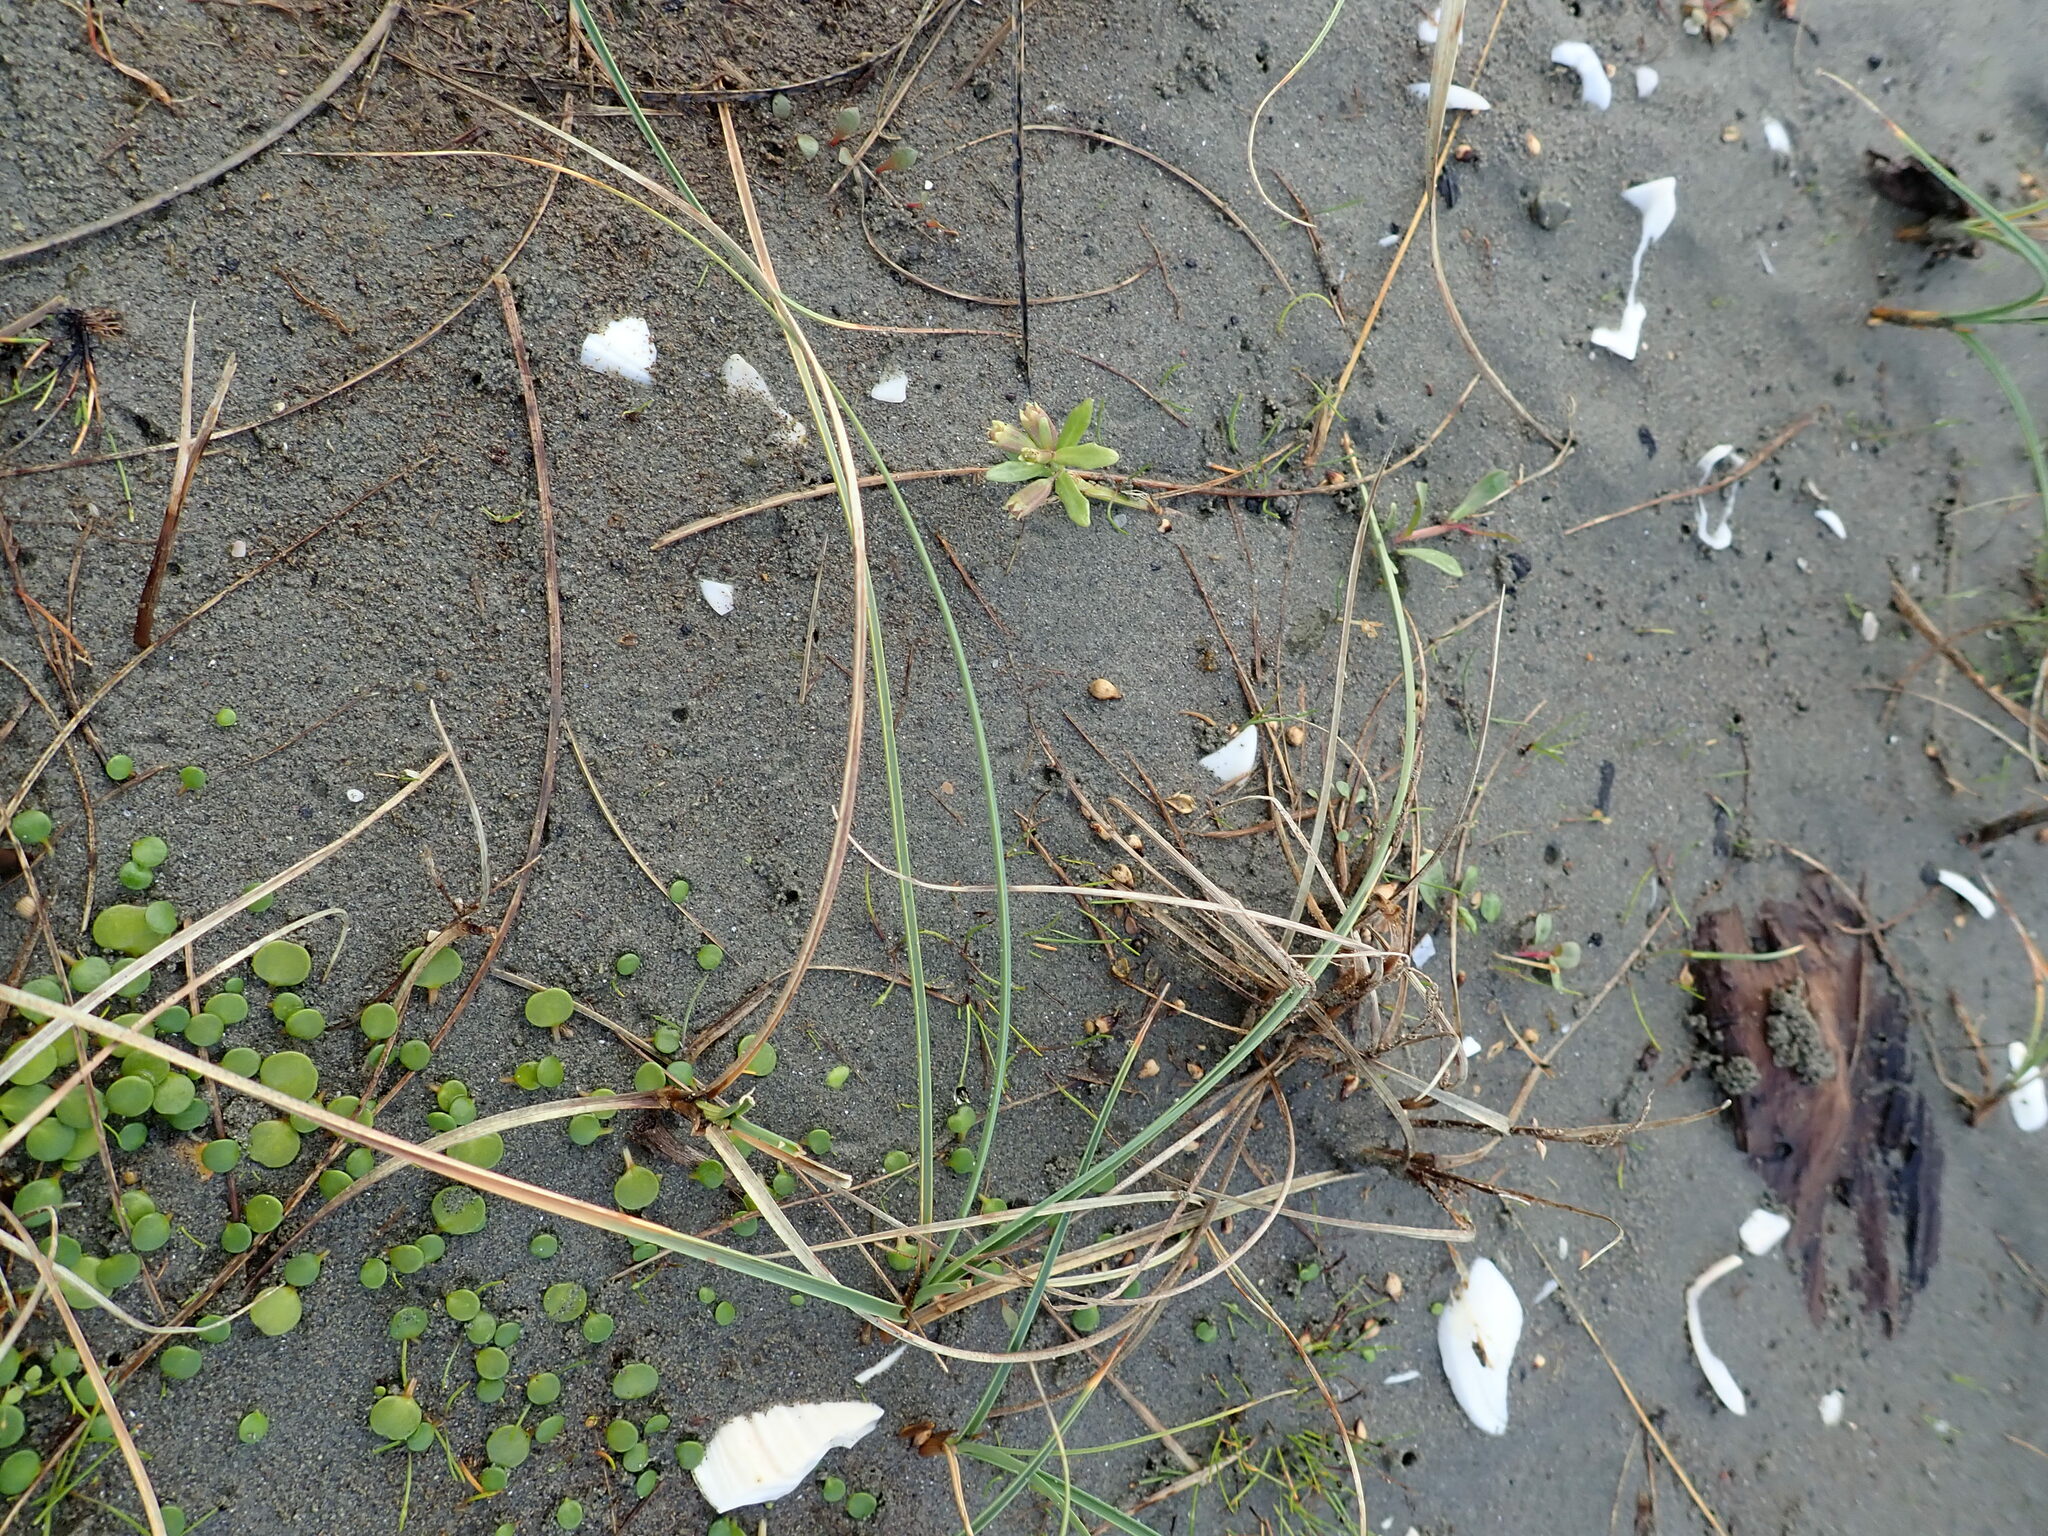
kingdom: Plantae
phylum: Tracheophyta
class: Magnoliopsida
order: Asterales
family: Campanulaceae
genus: Lobelia
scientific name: Lobelia anceps
